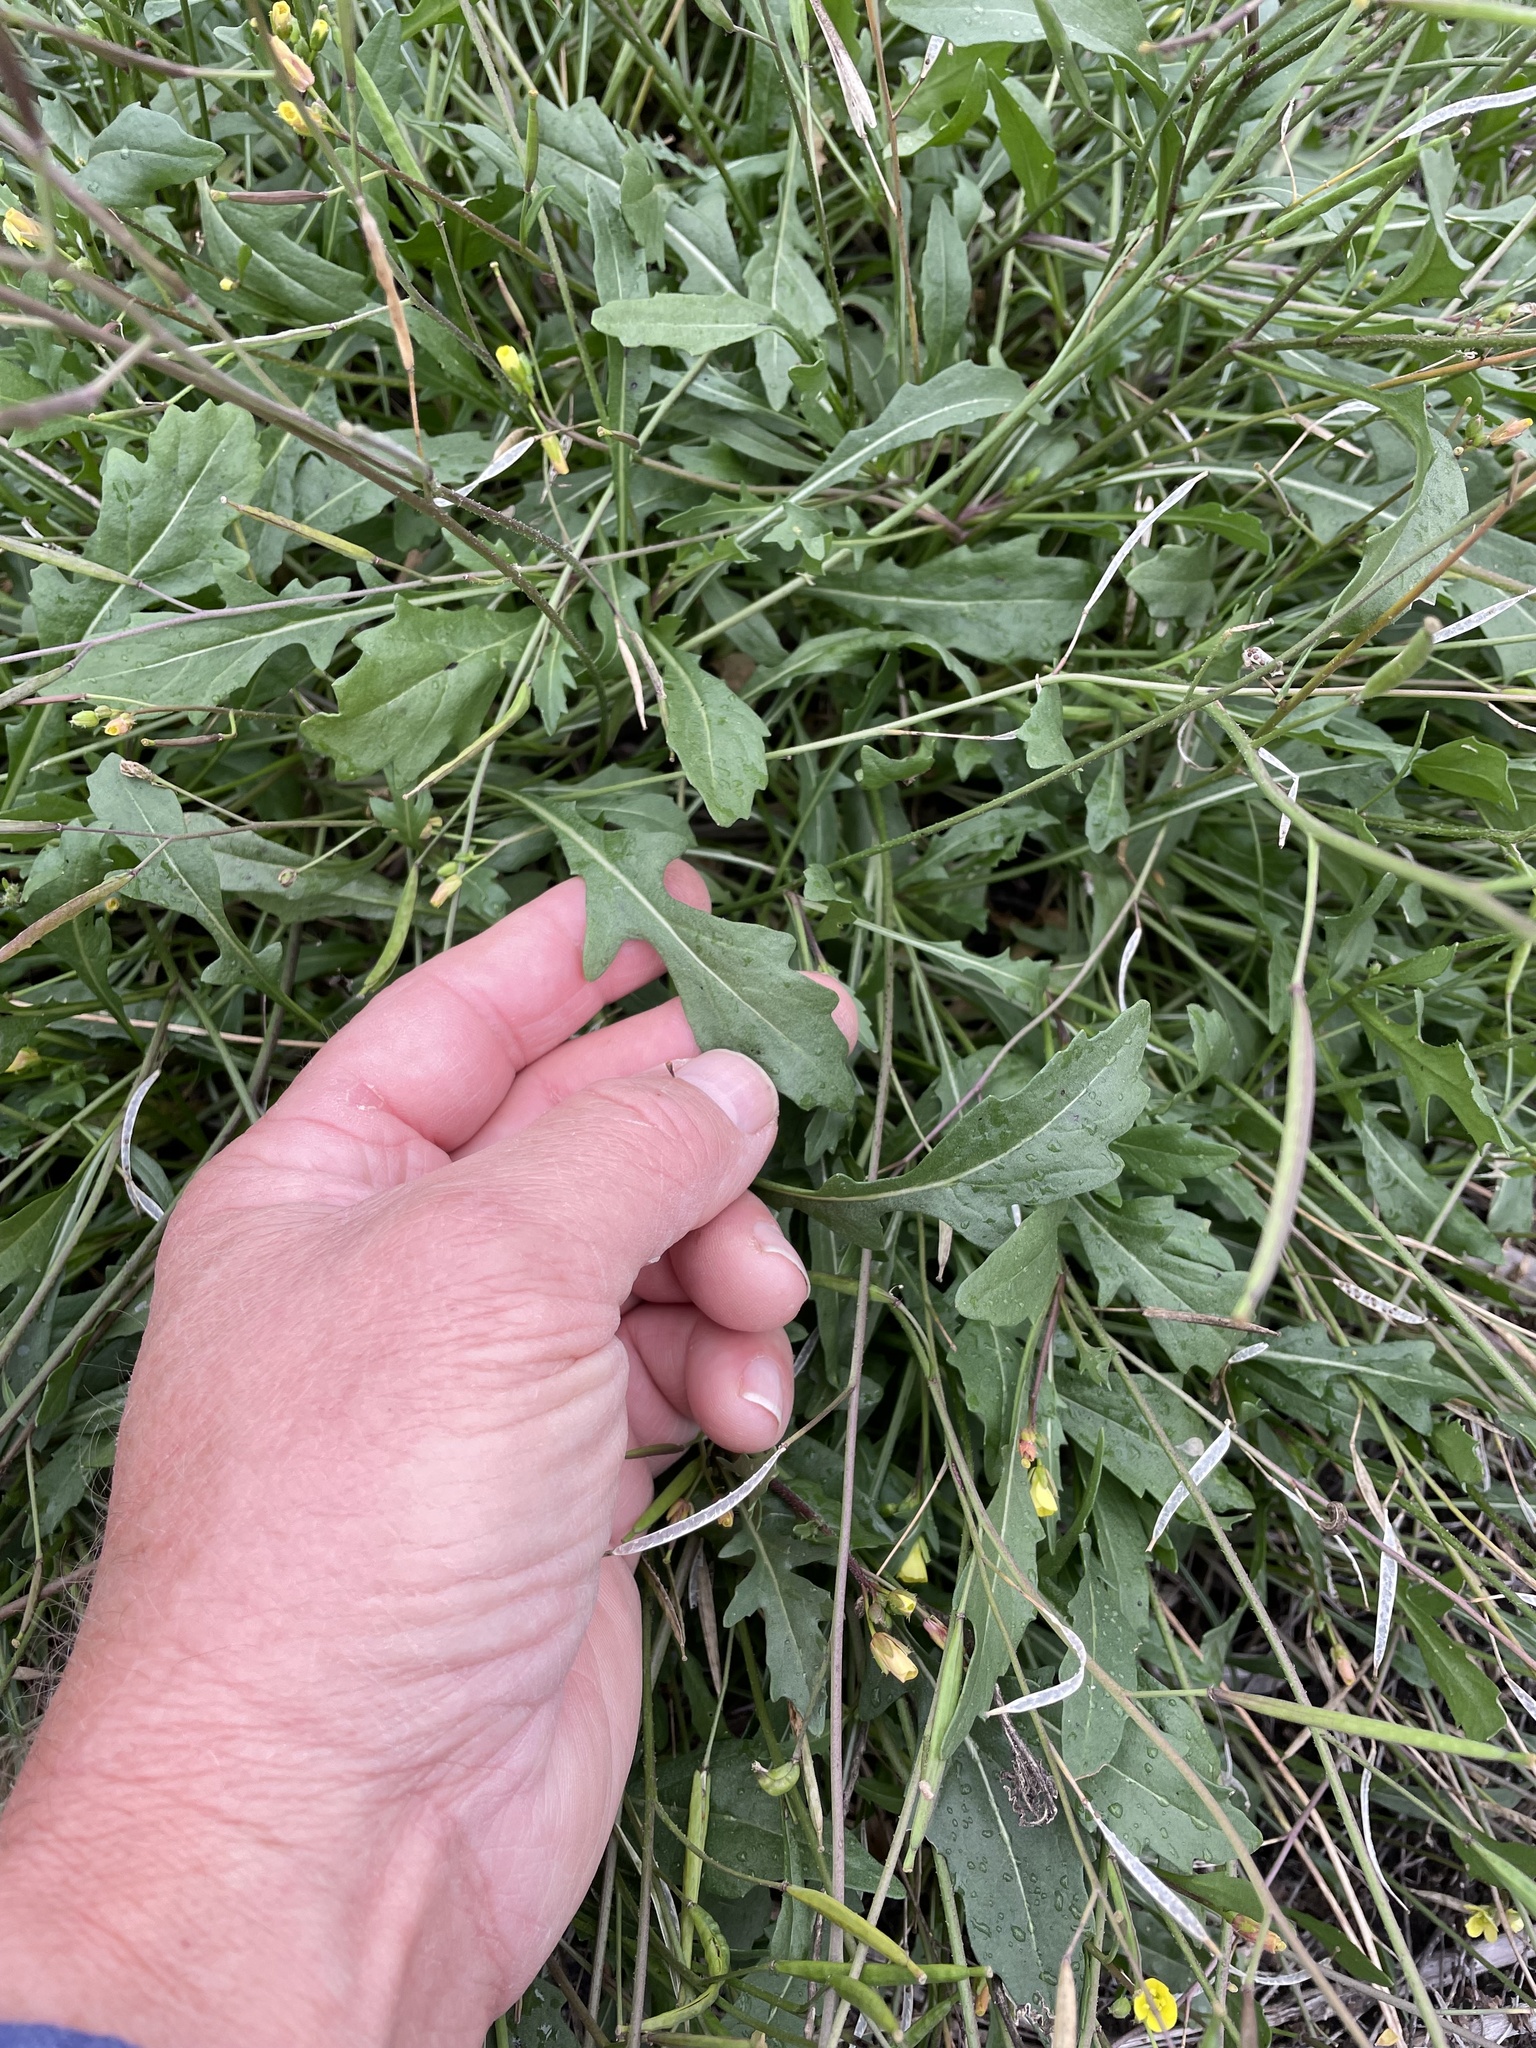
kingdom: Plantae
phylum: Tracheophyta
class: Magnoliopsida
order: Brassicales
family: Brassicaceae
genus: Diplotaxis
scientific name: Diplotaxis muralis
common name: Annual wall-rocket
